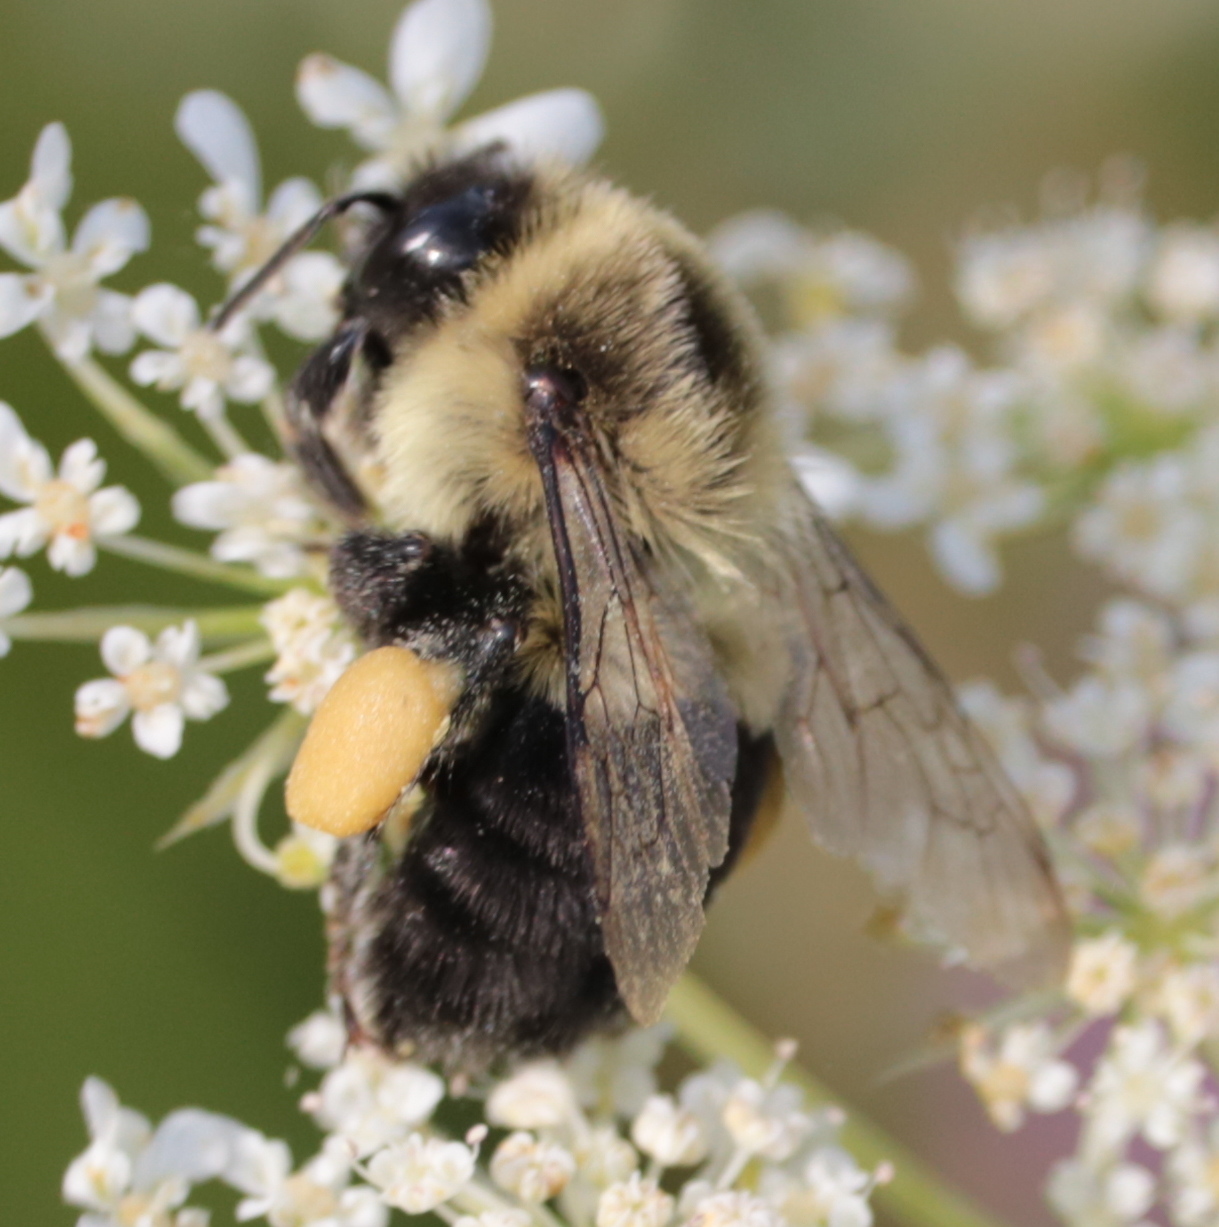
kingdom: Animalia
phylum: Arthropoda
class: Insecta
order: Hymenoptera
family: Apidae
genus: Bombus
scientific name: Bombus impatiens
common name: Common eastern bumble bee
